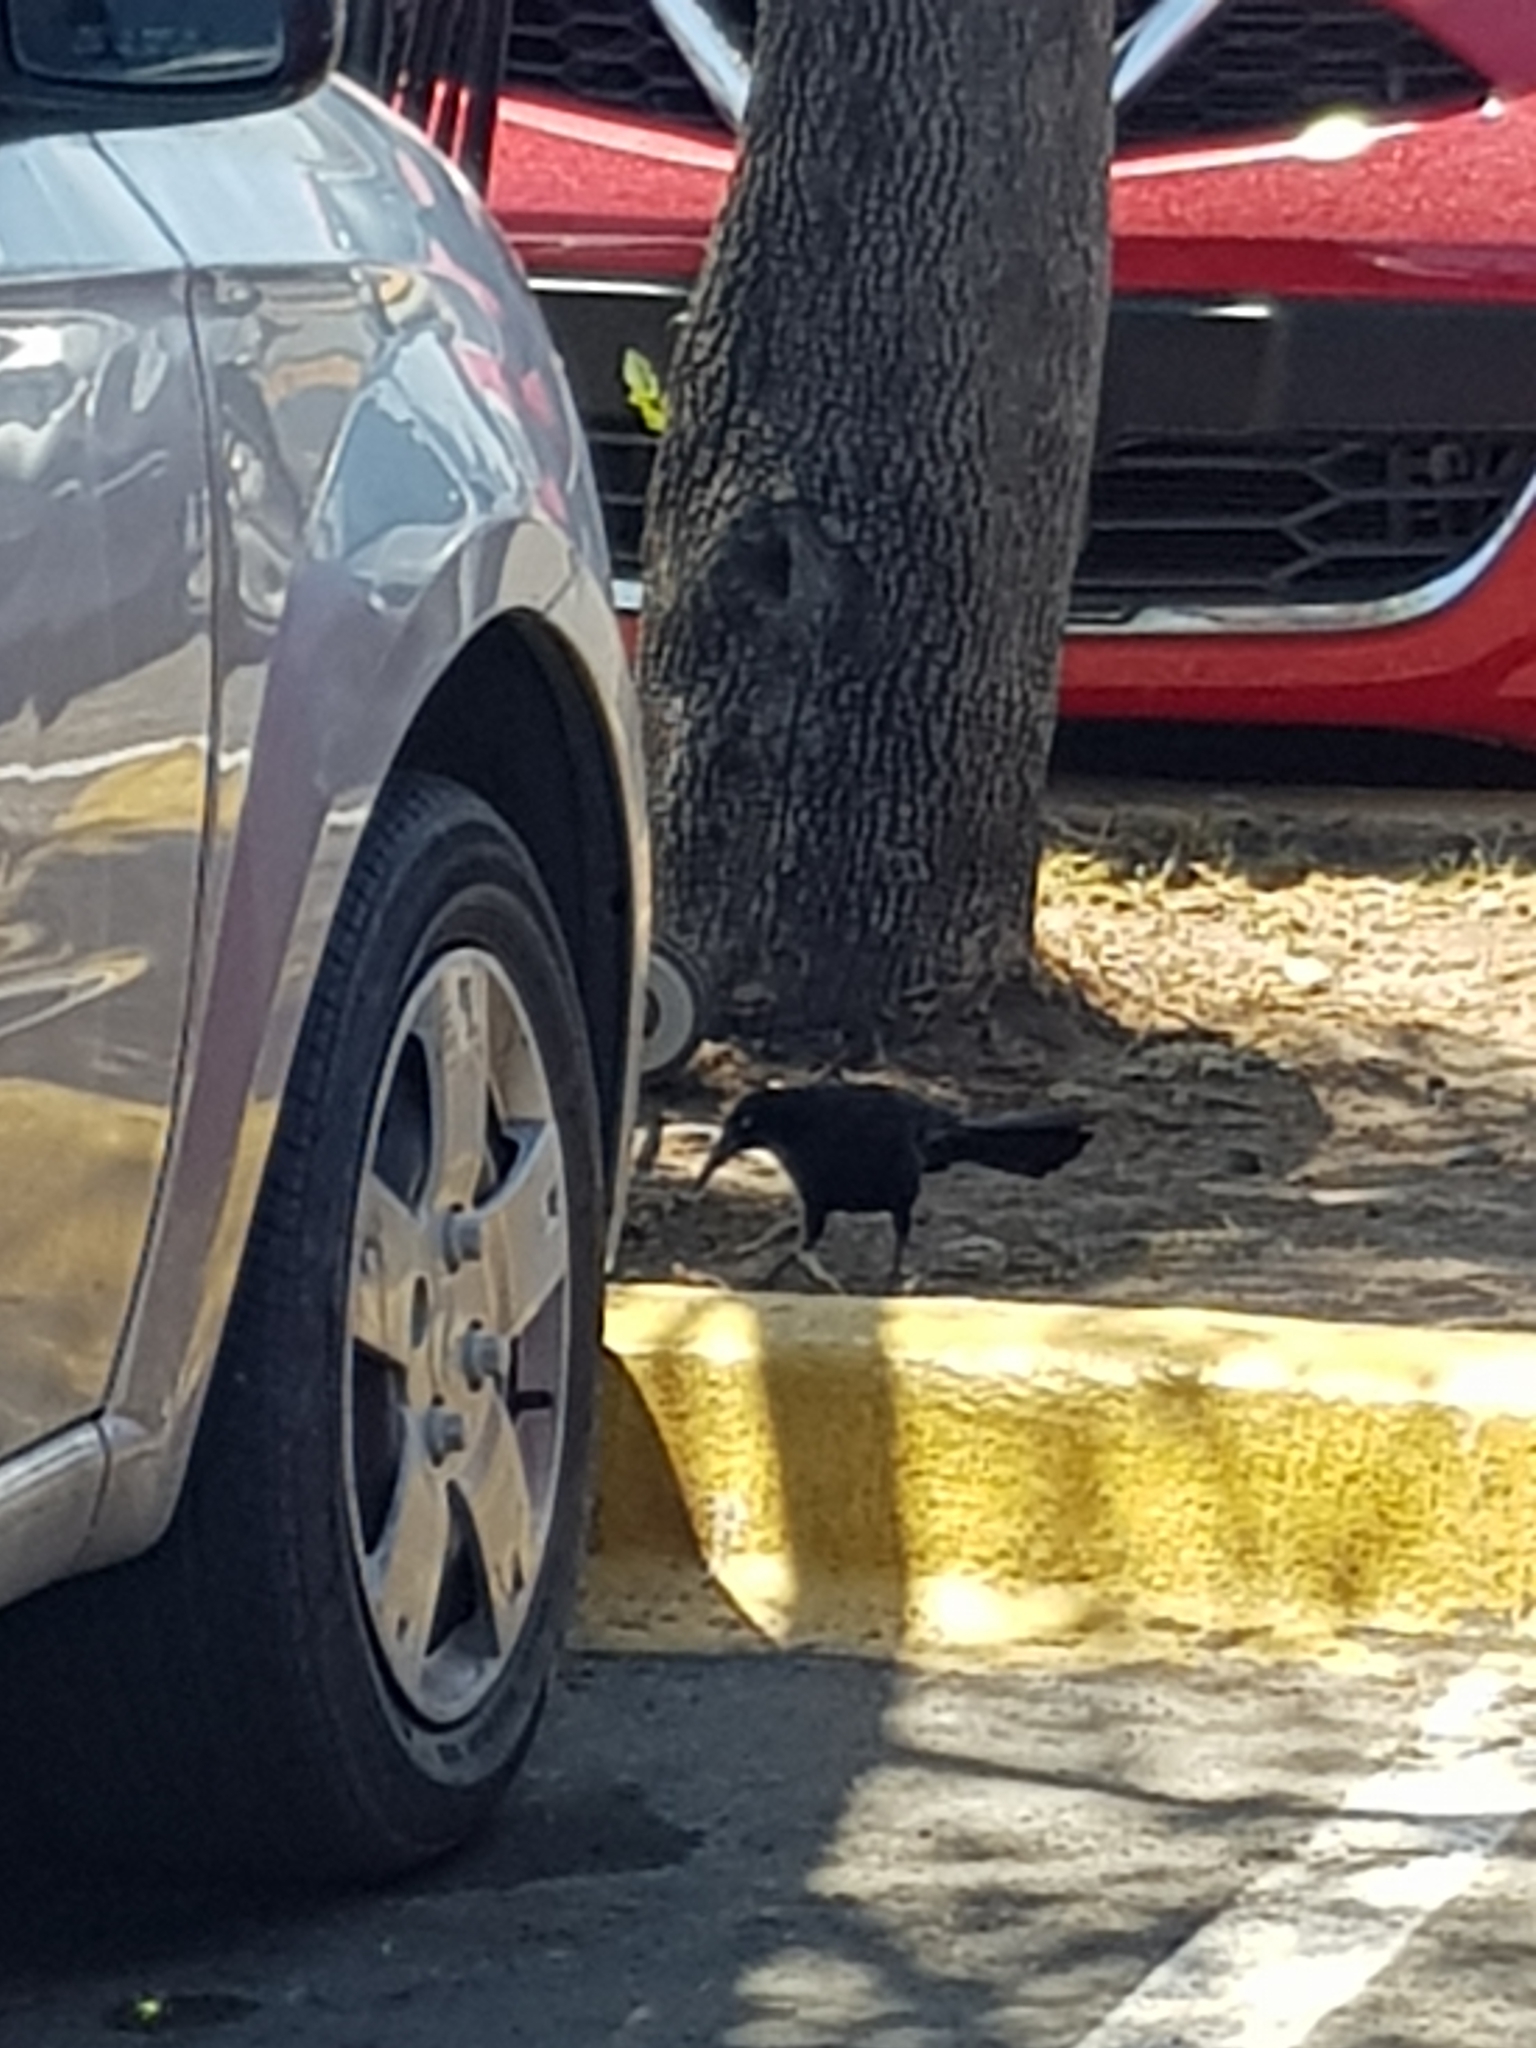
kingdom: Animalia
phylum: Chordata
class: Aves
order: Passeriformes
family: Icteridae
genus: Quiscalus
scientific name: Quiscalus mexicanus
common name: Great-tailed grackle
